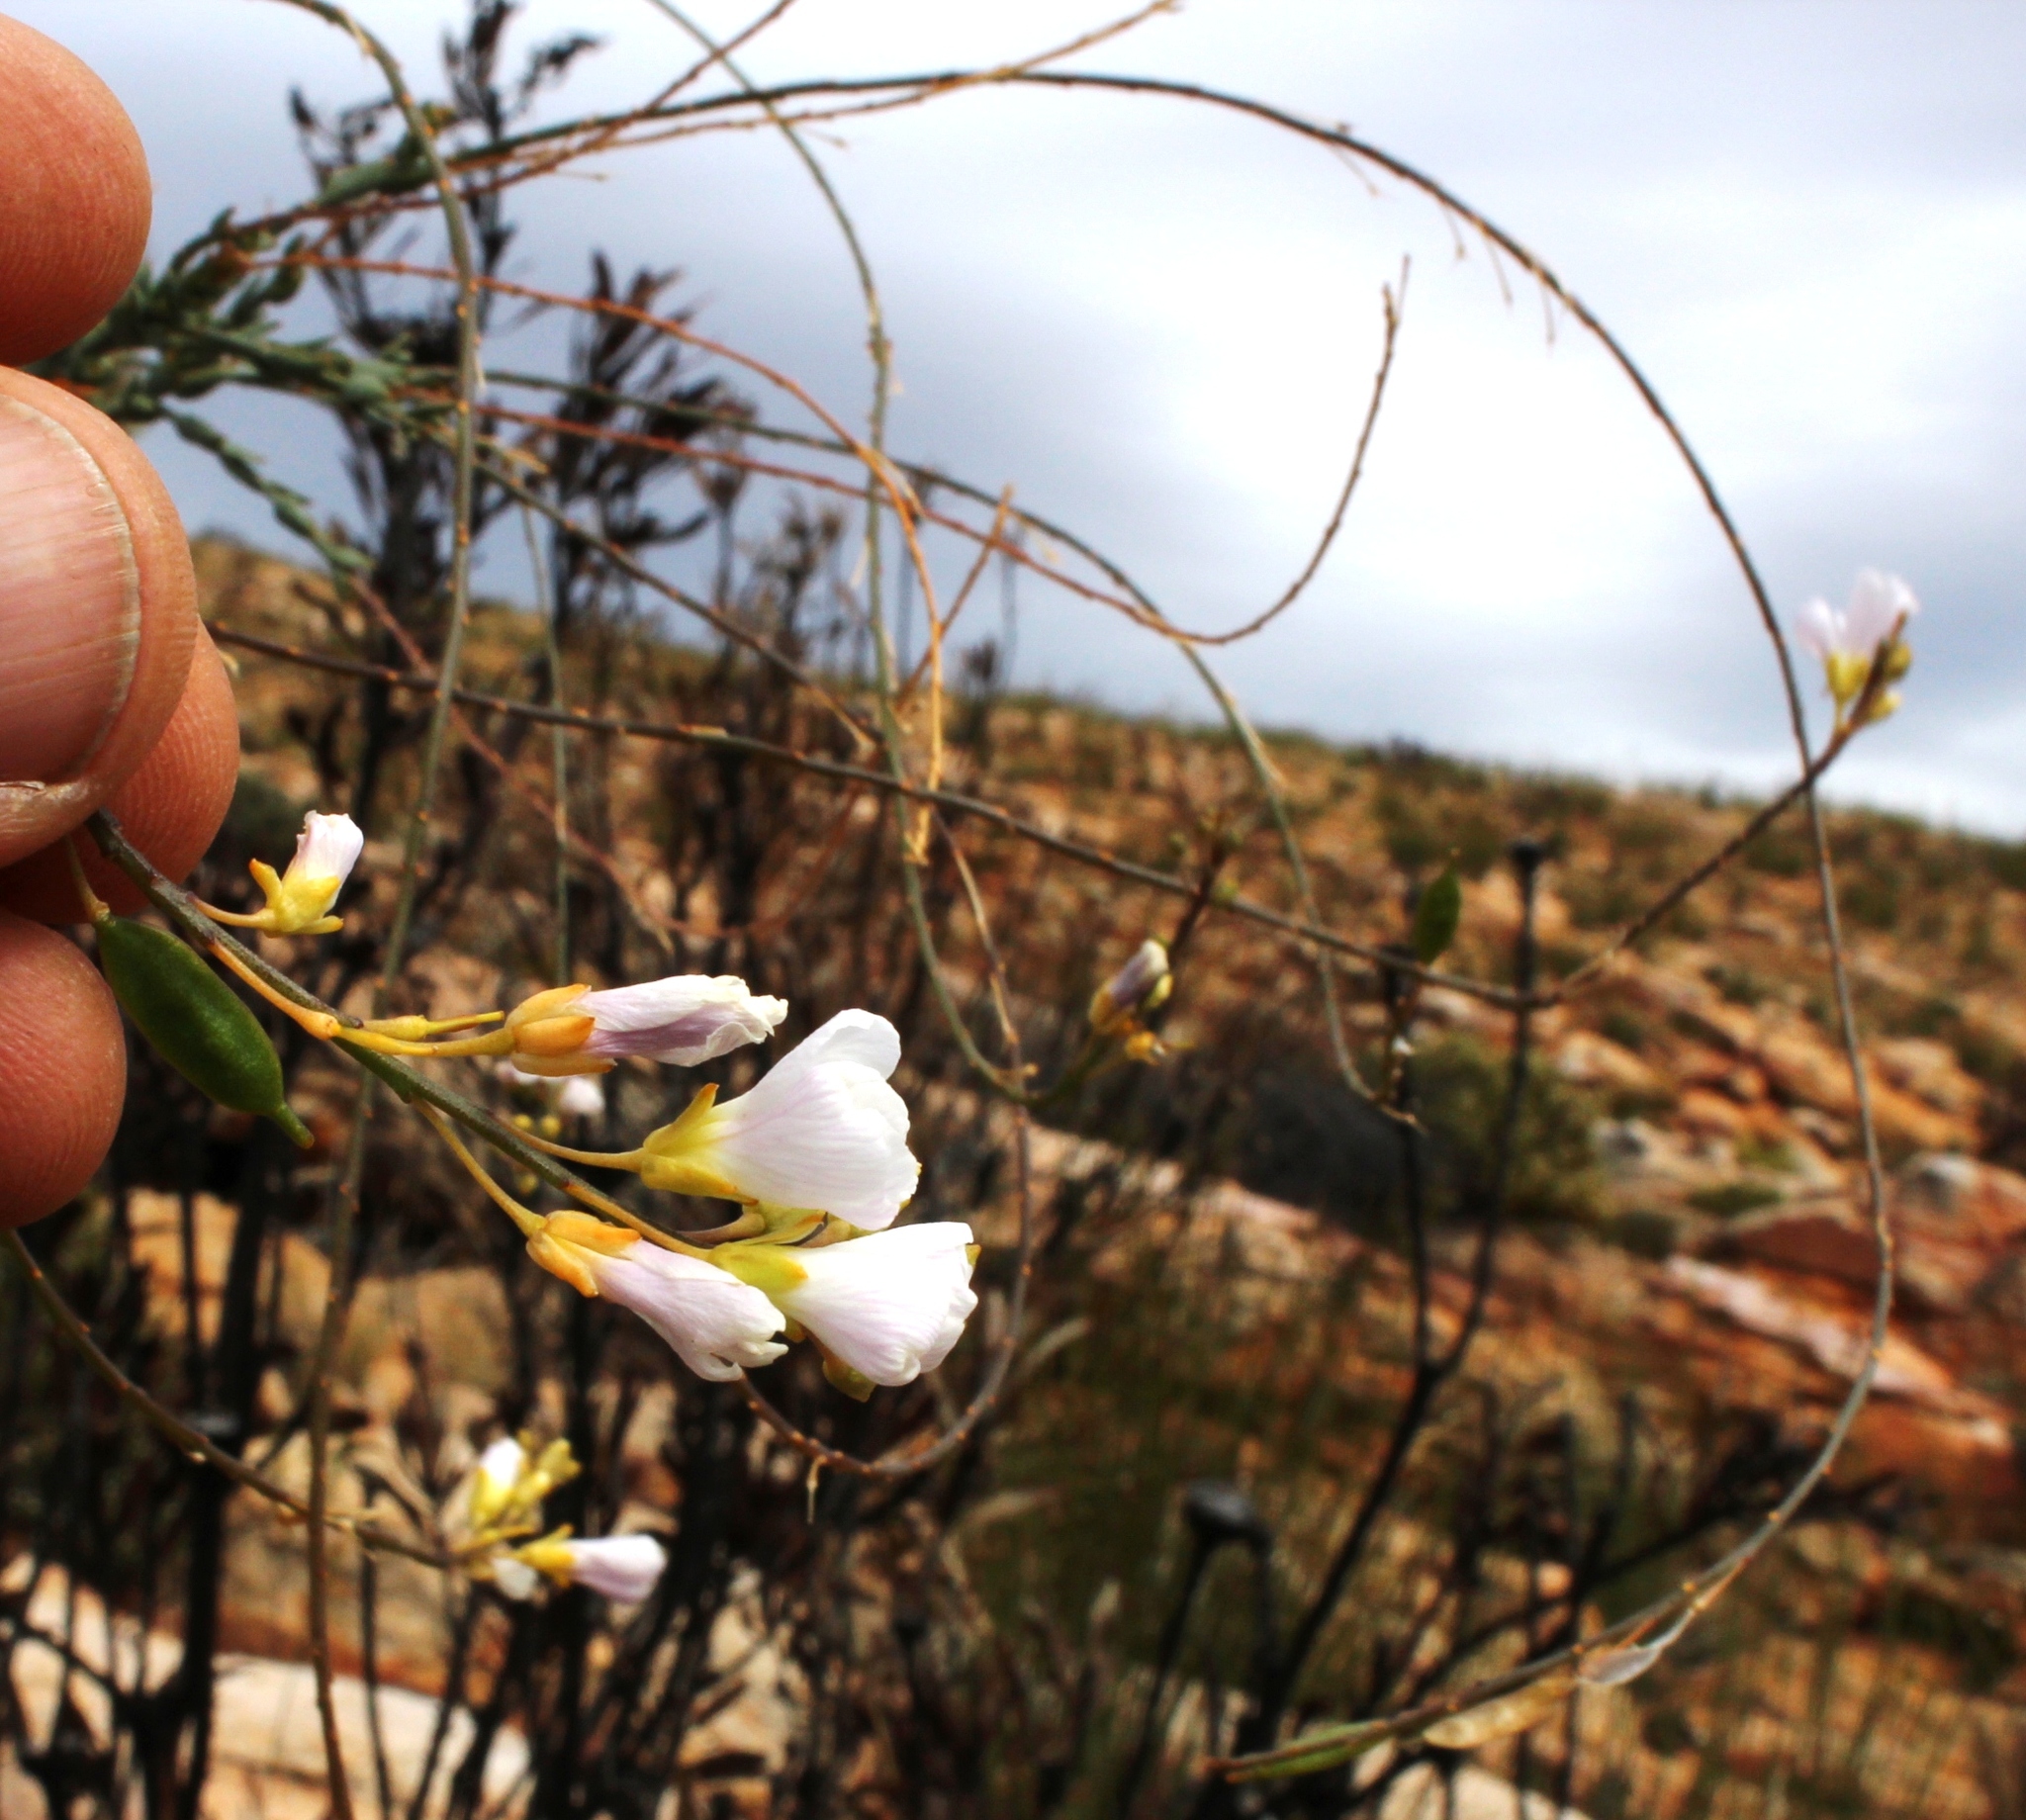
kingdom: Plantae
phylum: Tracheophyta
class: Magnoliopsida
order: Brassicales
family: Brassicaceae
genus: Heliophila
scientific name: Heliophila glauca
